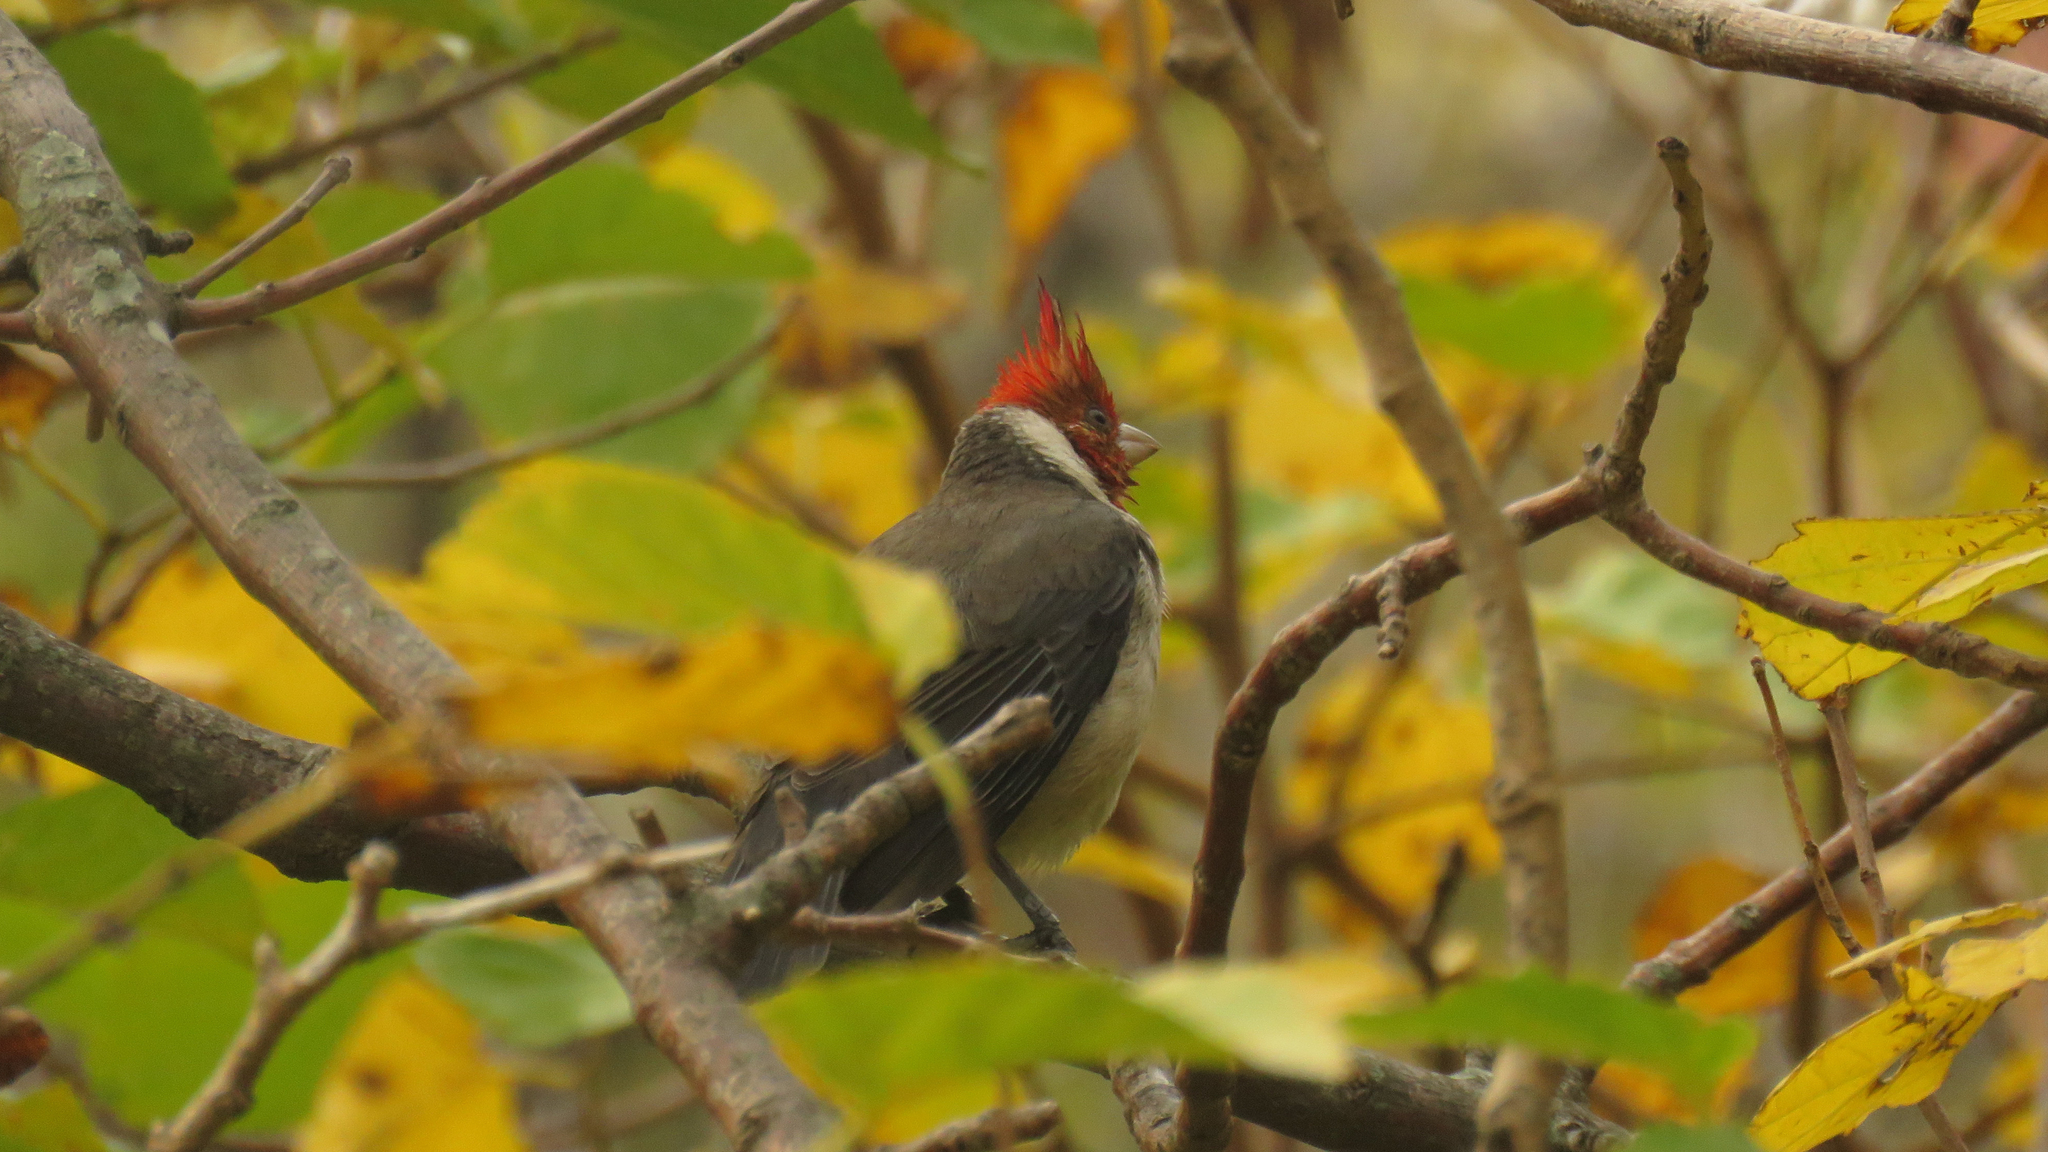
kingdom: Animalia
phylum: Chordata
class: Aves
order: Passeriformes
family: Thraupidae
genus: Paroaria
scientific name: Paroaria coronata
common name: Red-crested cardinal
